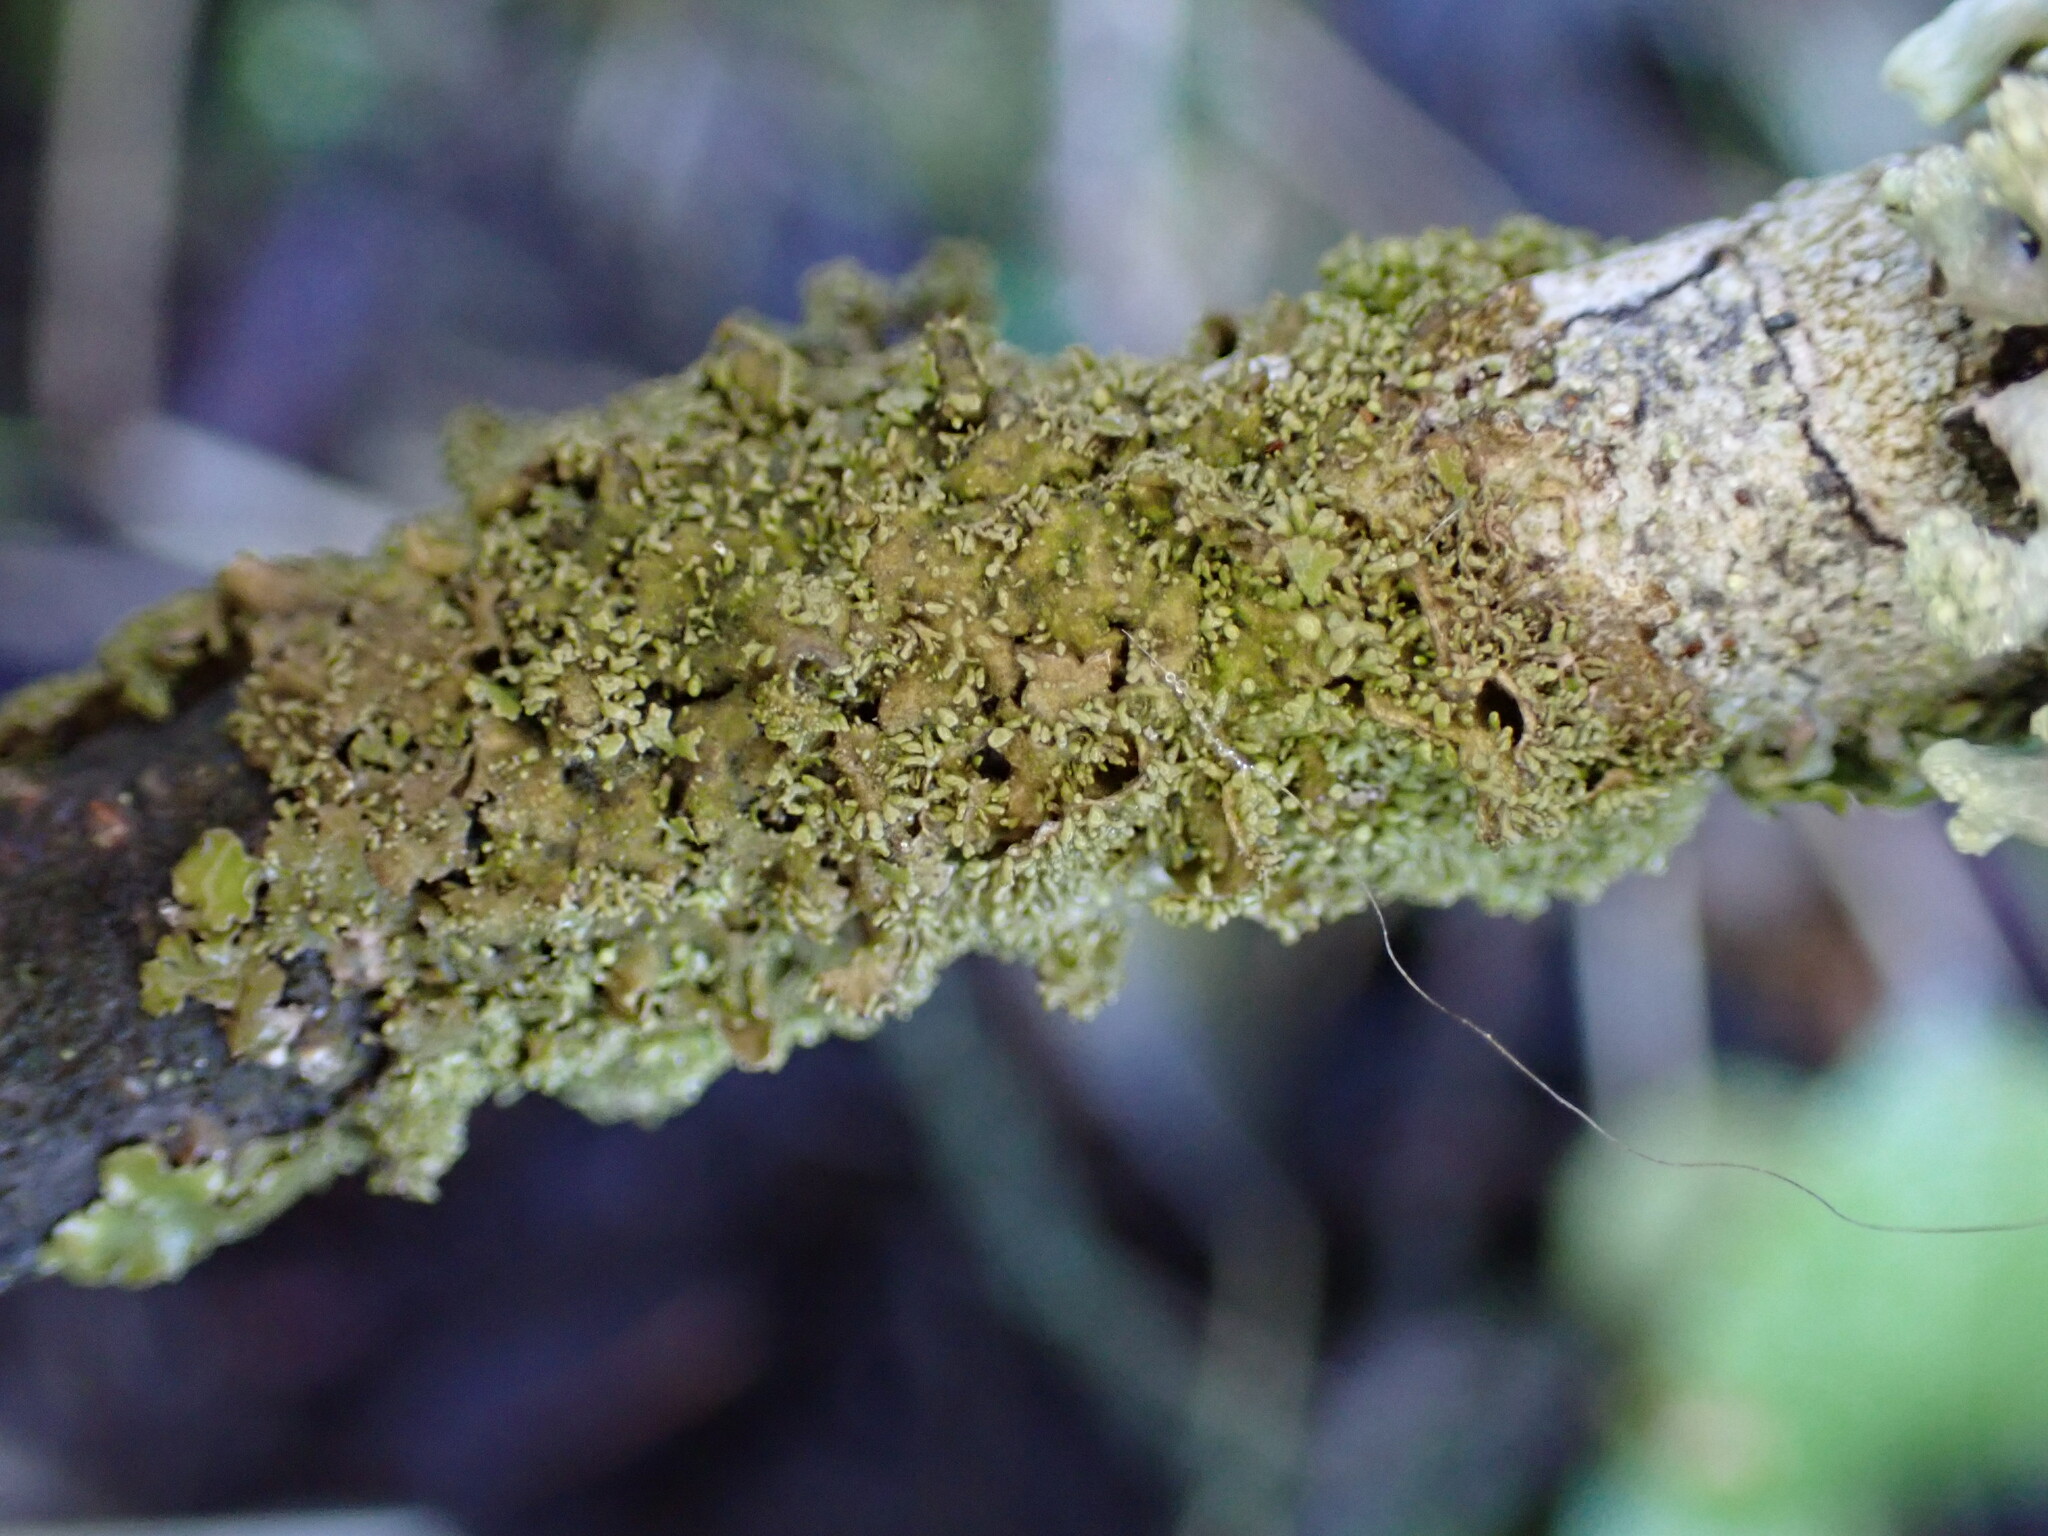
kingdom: Fungi
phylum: Ascomycota
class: Lecanoromycetes
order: Lecanorales
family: Parmeliaceae
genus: Melanohalea
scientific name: Melanohalea exasperatula
